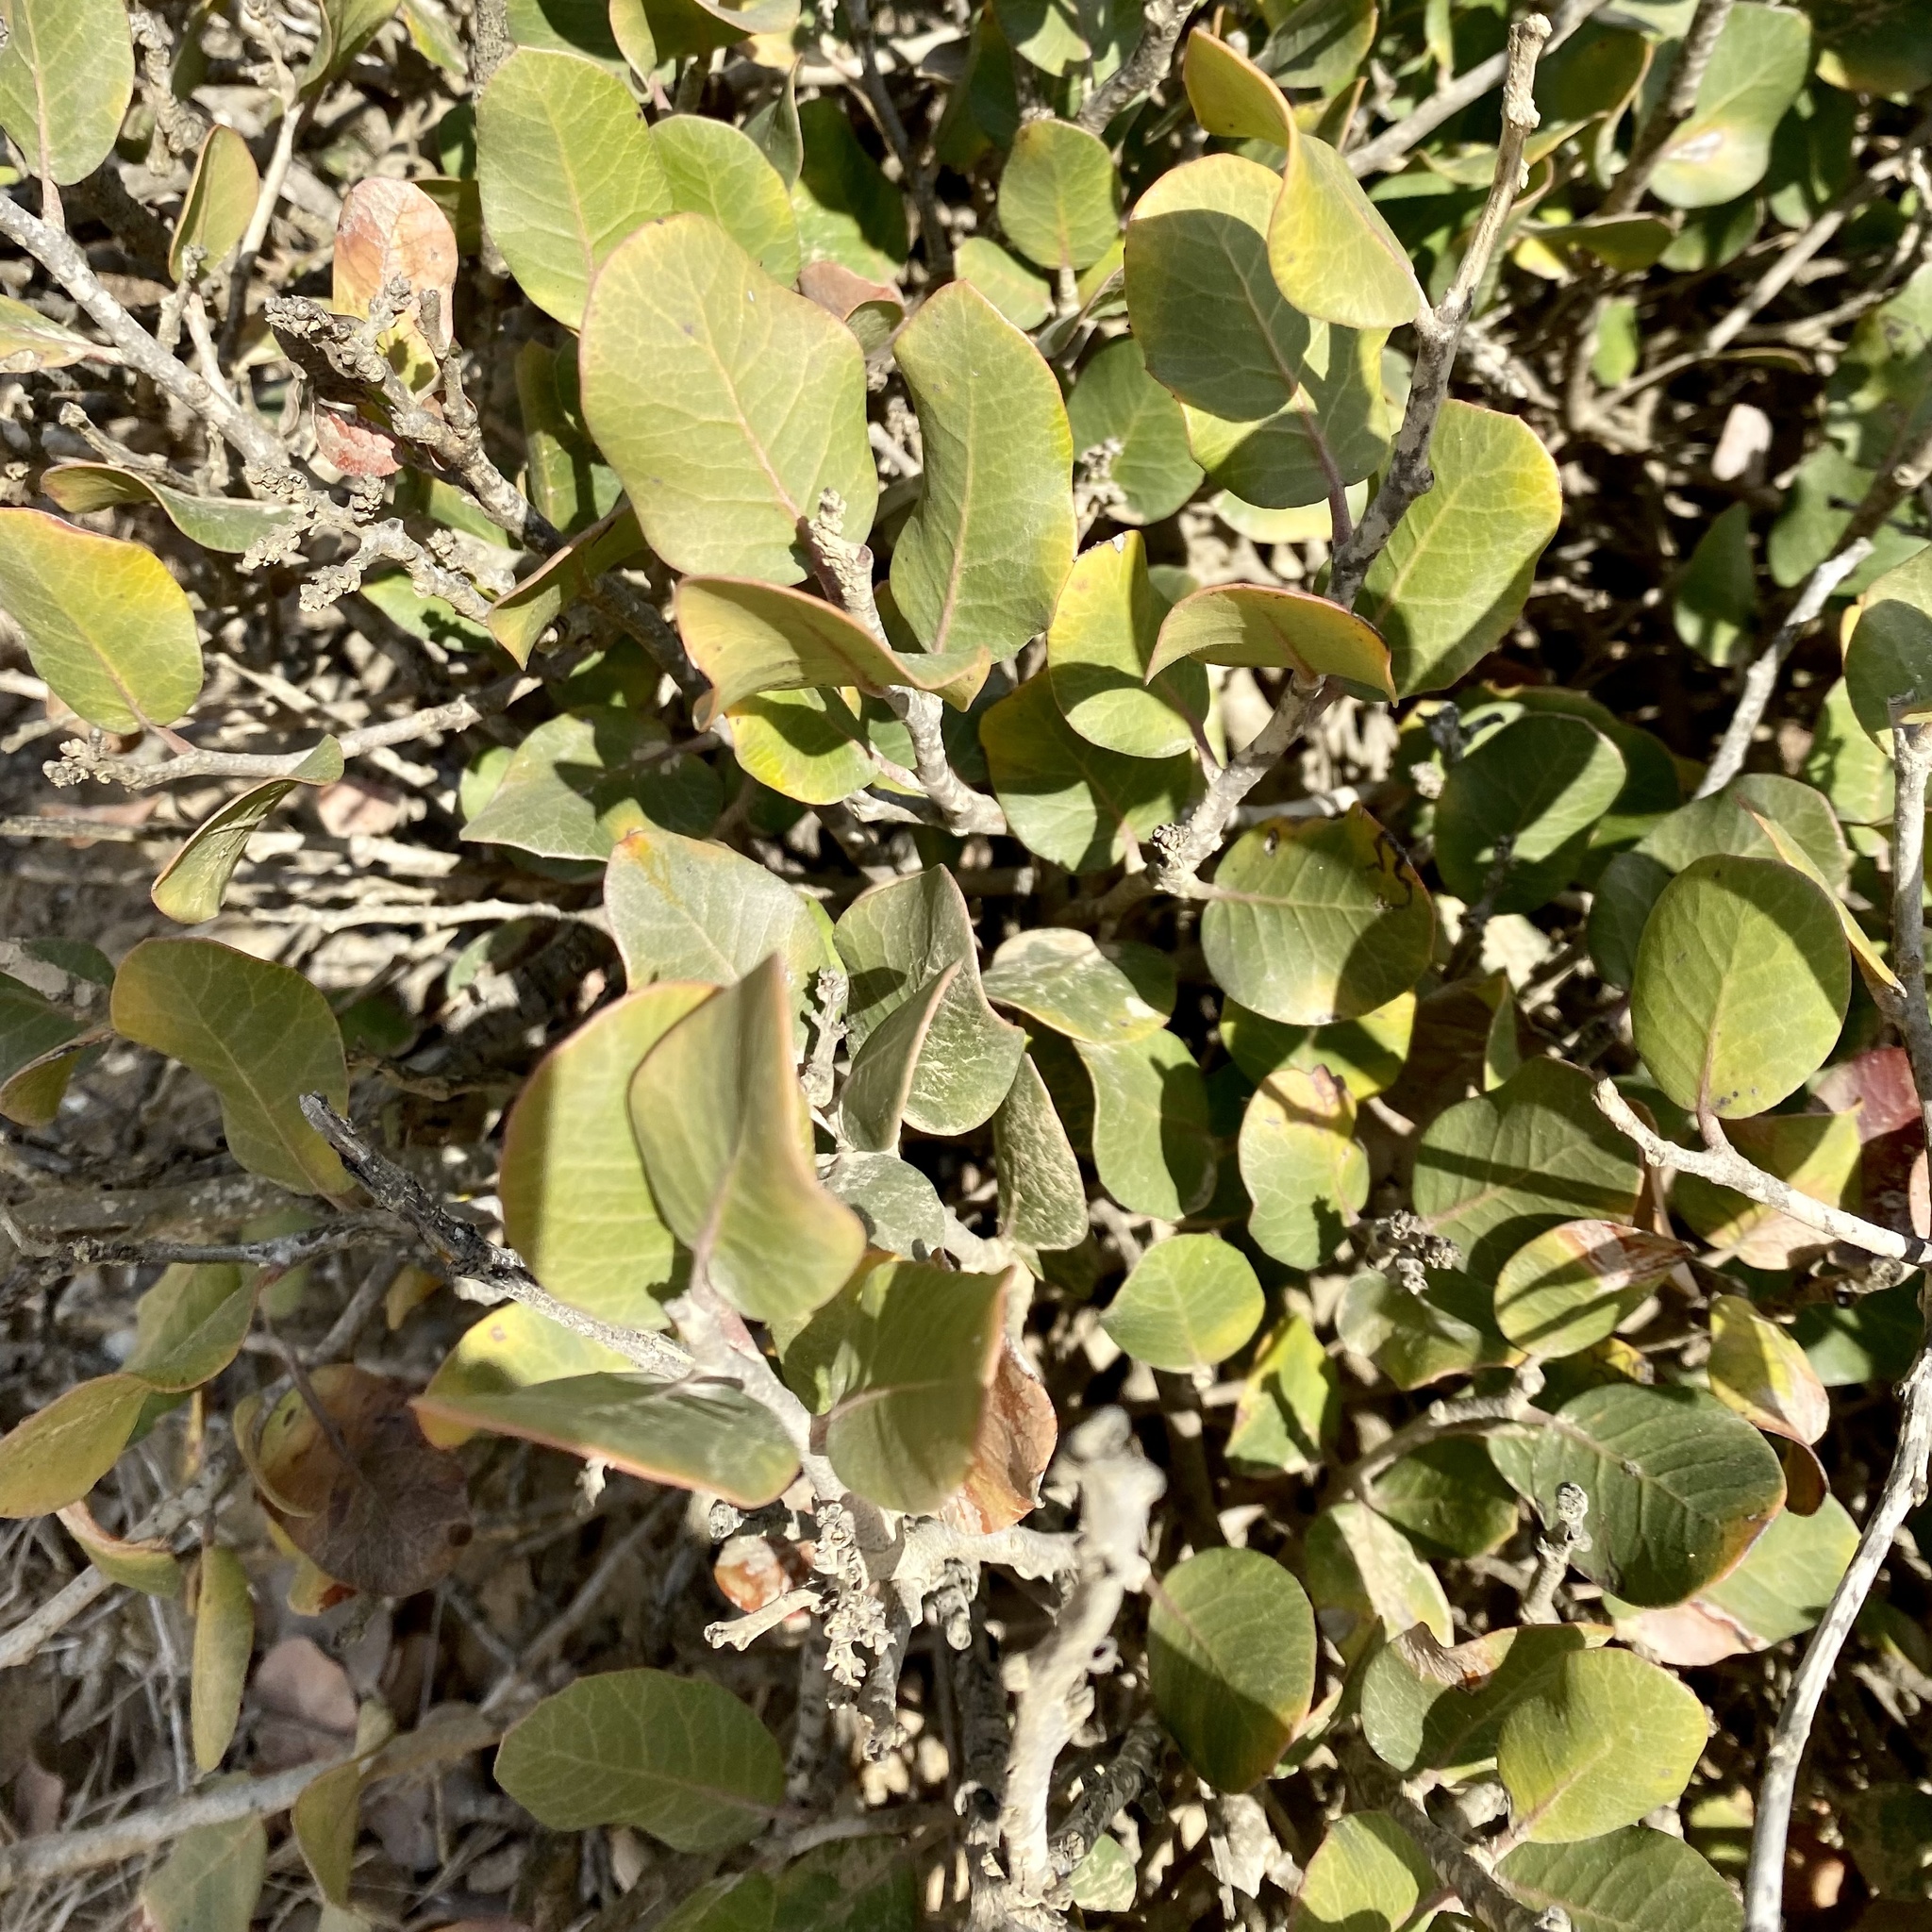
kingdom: Plantae
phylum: Tracheophyta
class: Magnoliopsida
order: Sapindales
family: Anacardiaceae
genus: Rhus
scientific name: Rhus integrifolia
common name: Lemonade sumac
